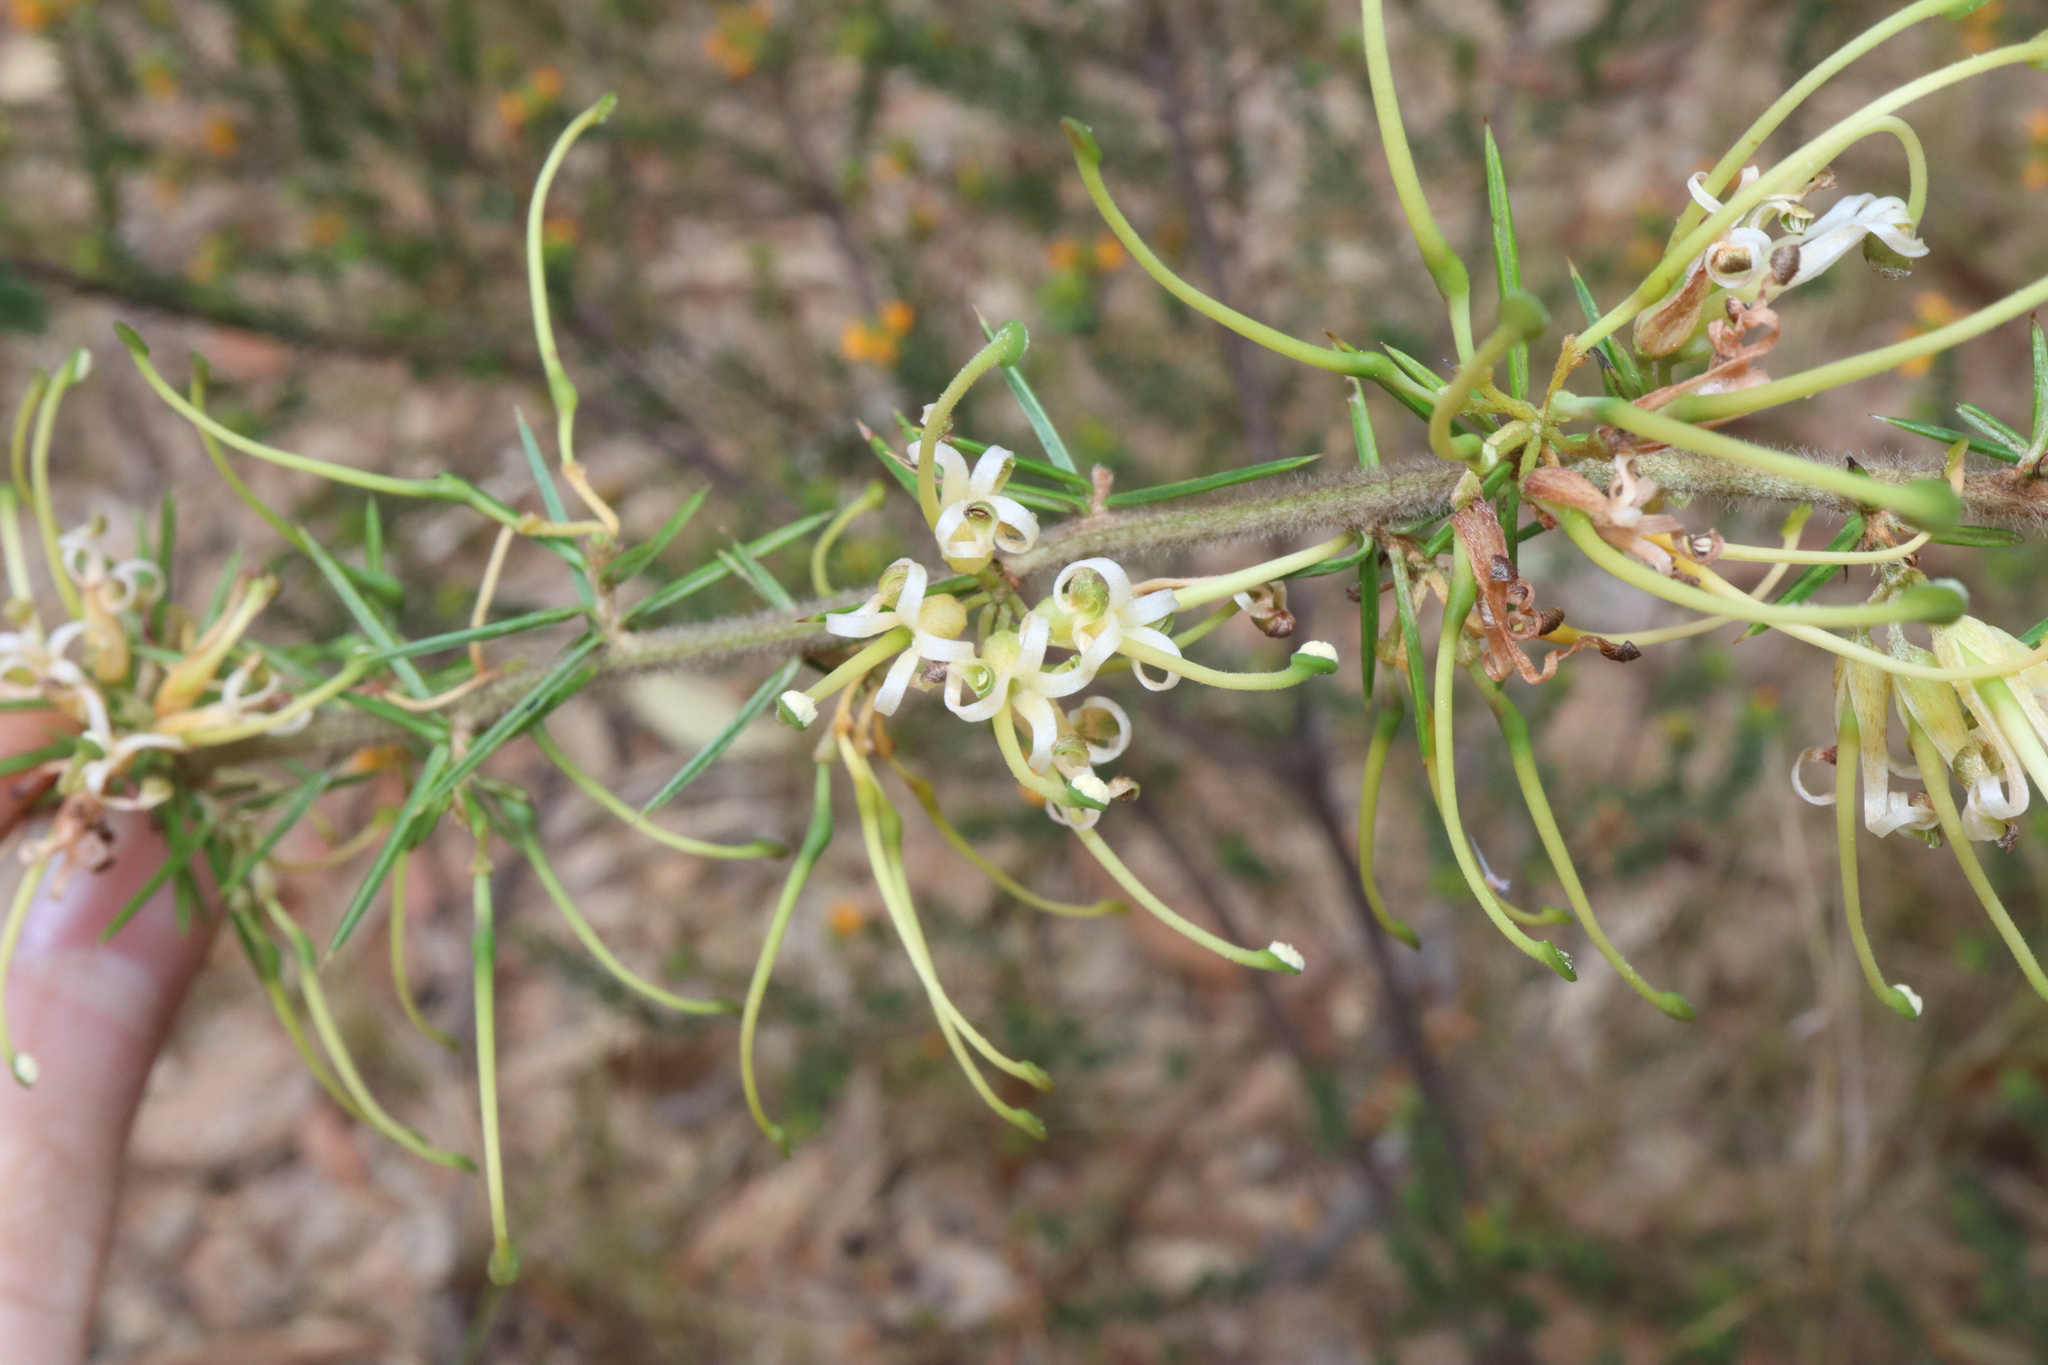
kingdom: Plantae
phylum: Tracheophyta
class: Magnoliopsida
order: Proteales
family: Proteaceae
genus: Grevillea
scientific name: Grevillea juniperina
